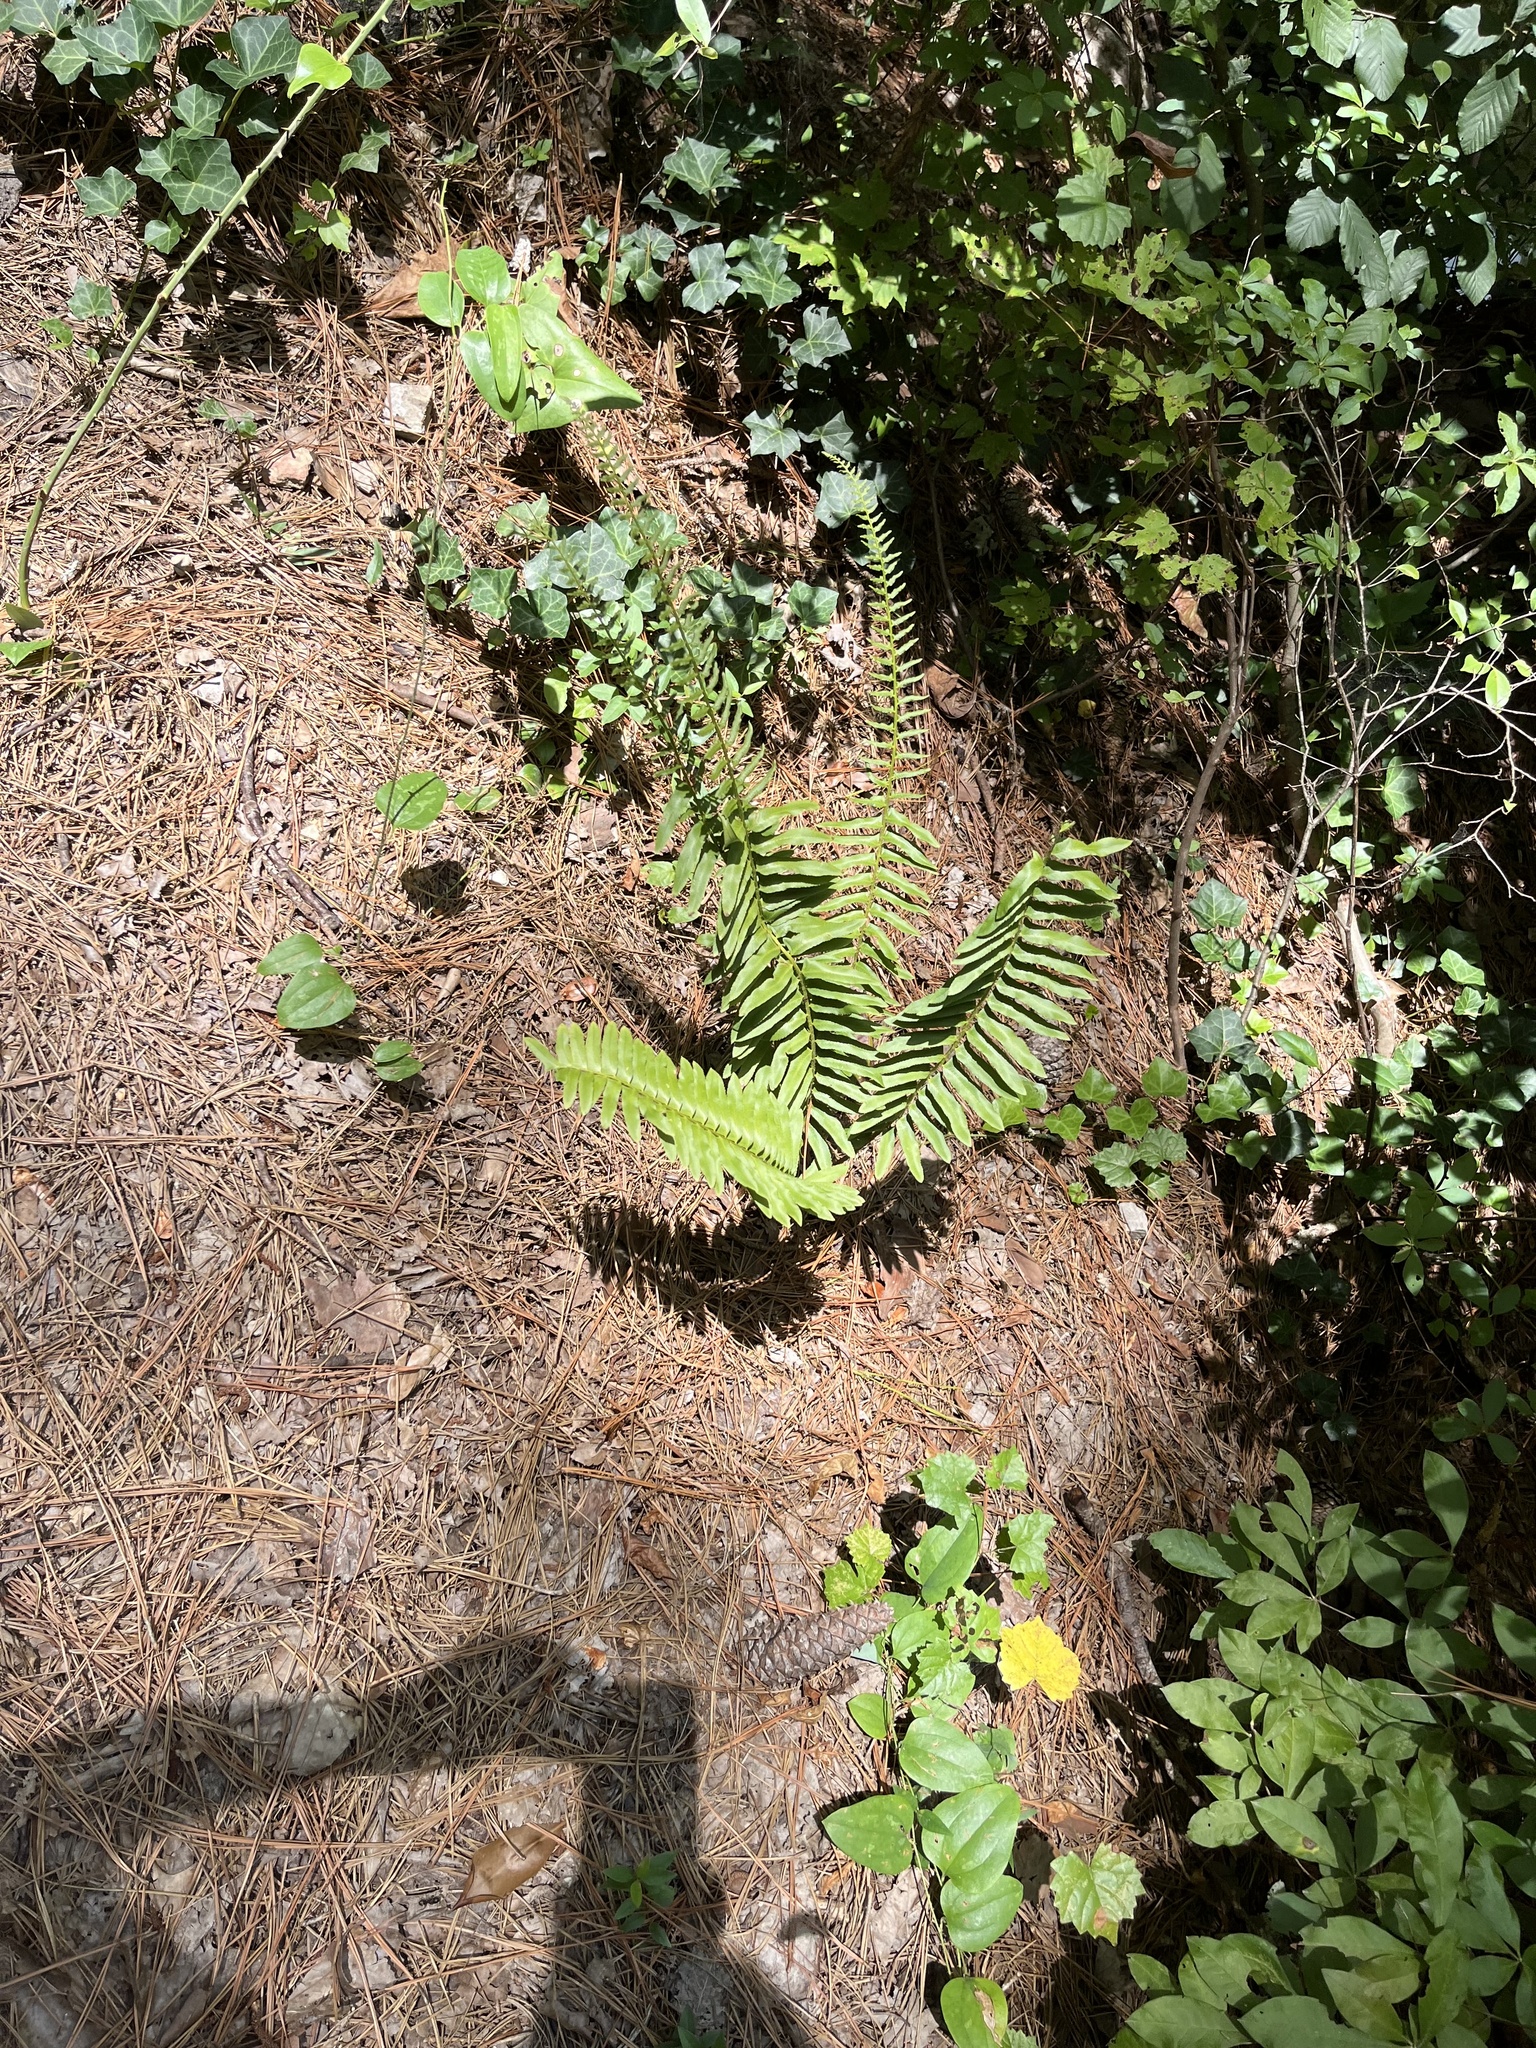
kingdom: Plantae
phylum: Tracheophyta
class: Polypodiopsida
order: Polypodiales
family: Dryopteridaceae
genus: Polystichum
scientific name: Polystichum acrostichoides
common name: Christmas fern
